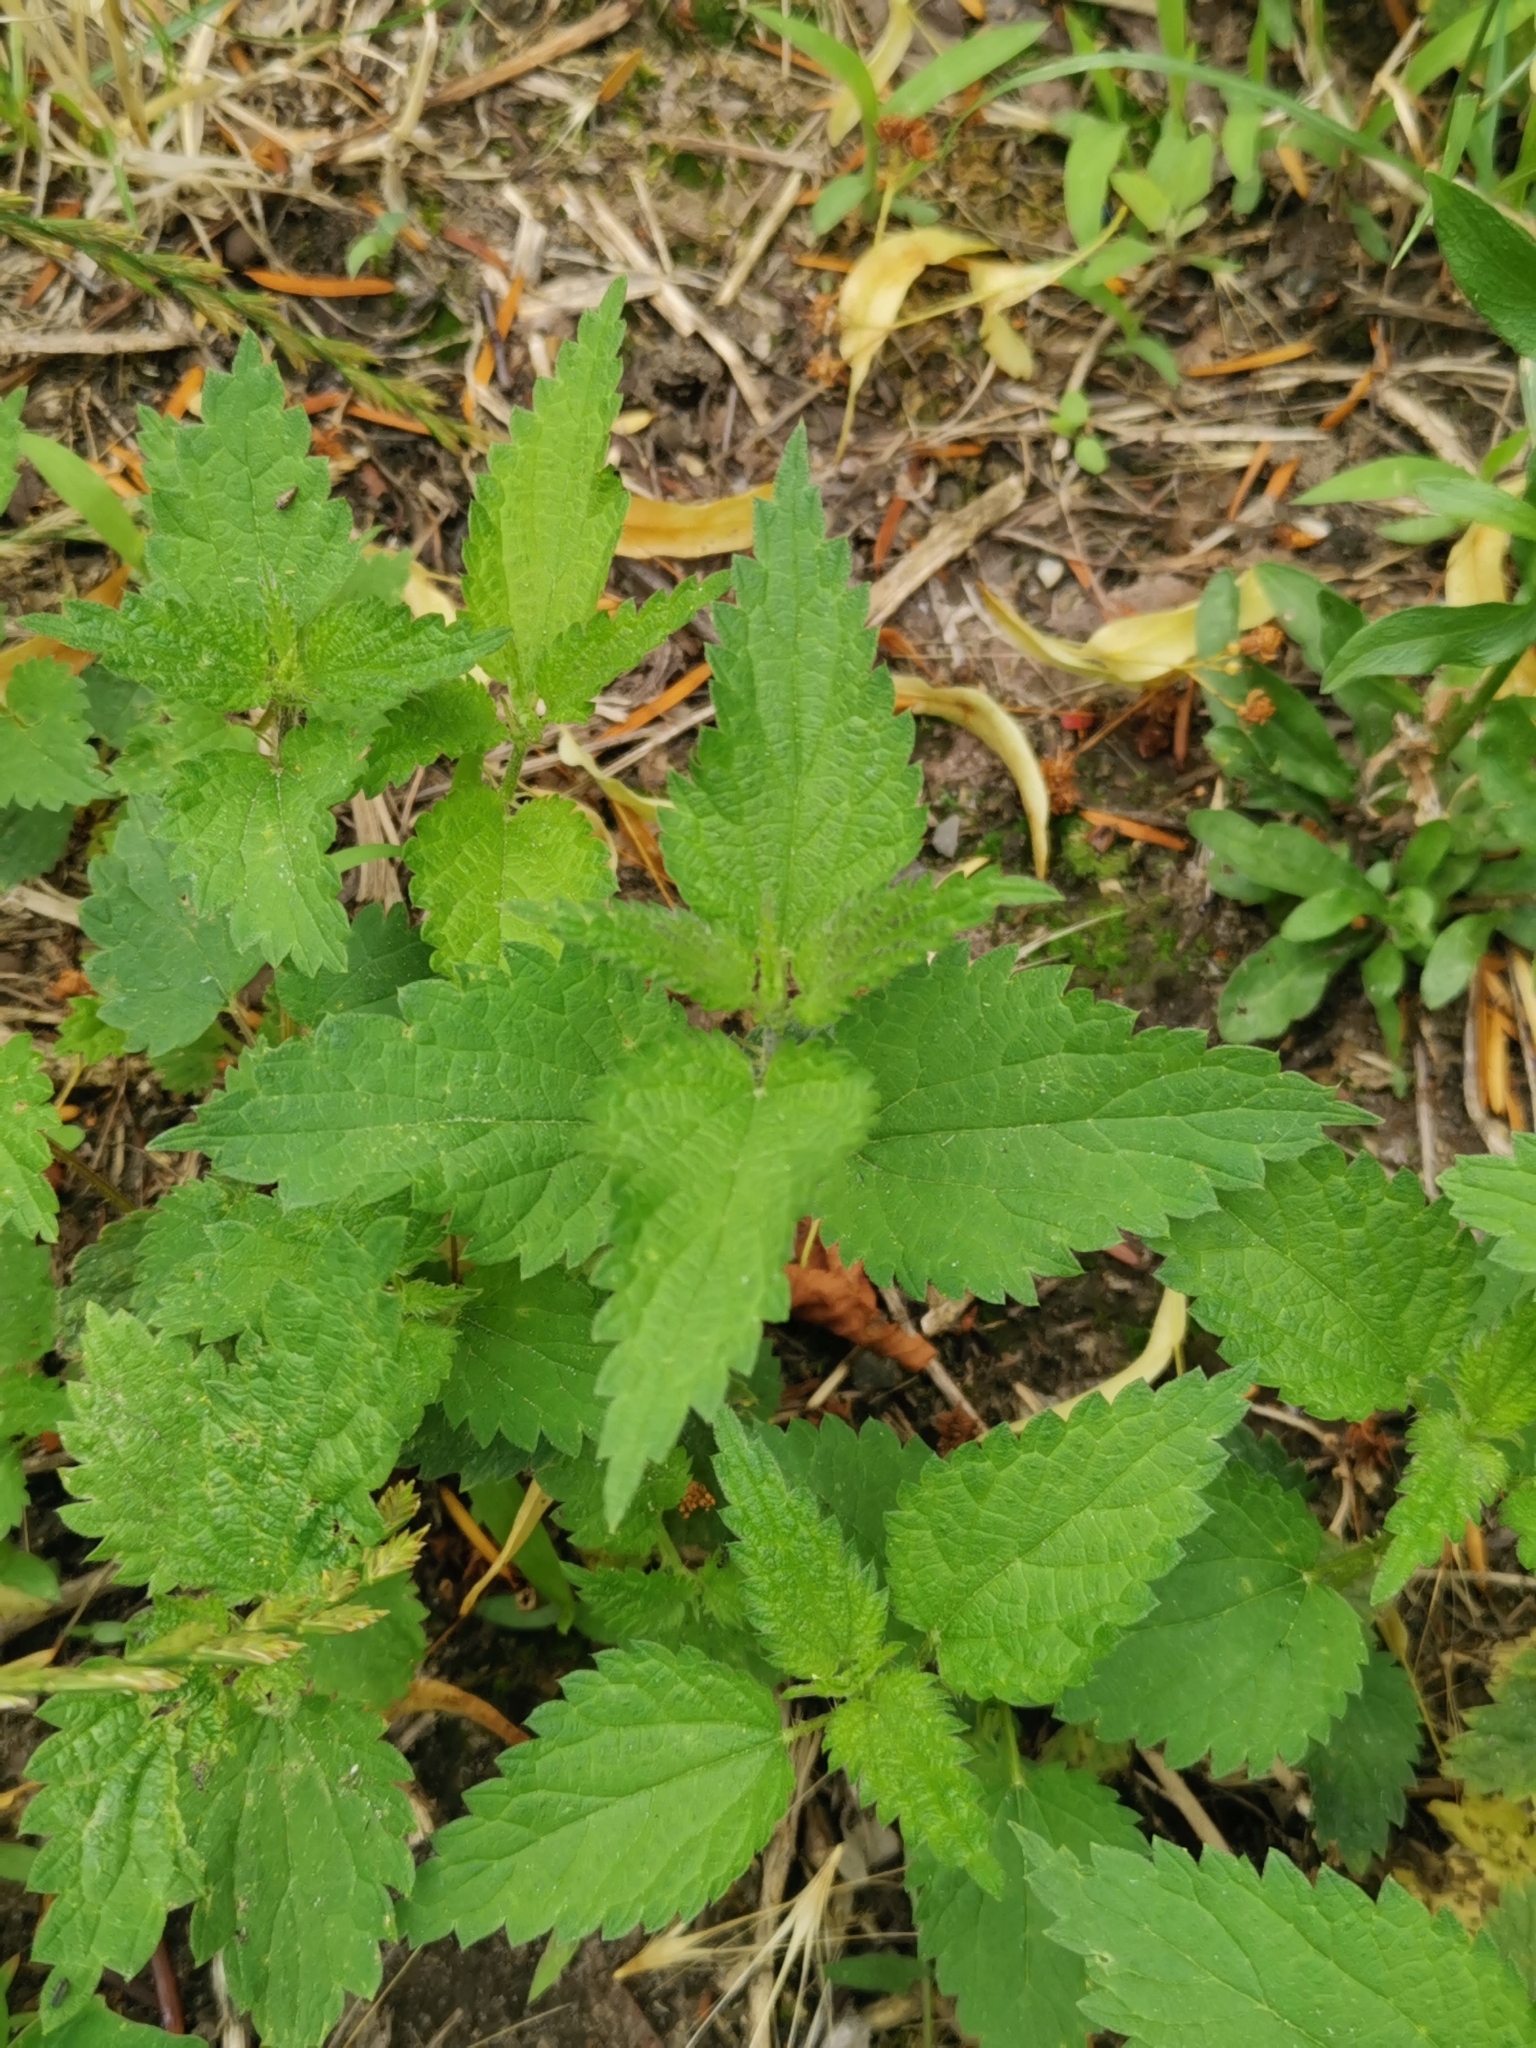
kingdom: Plantae
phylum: Tracheophyta
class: Magnoliopsida
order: Rosales
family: Urticaceae
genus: Urtica
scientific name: Urtica dioica
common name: Common nettle
